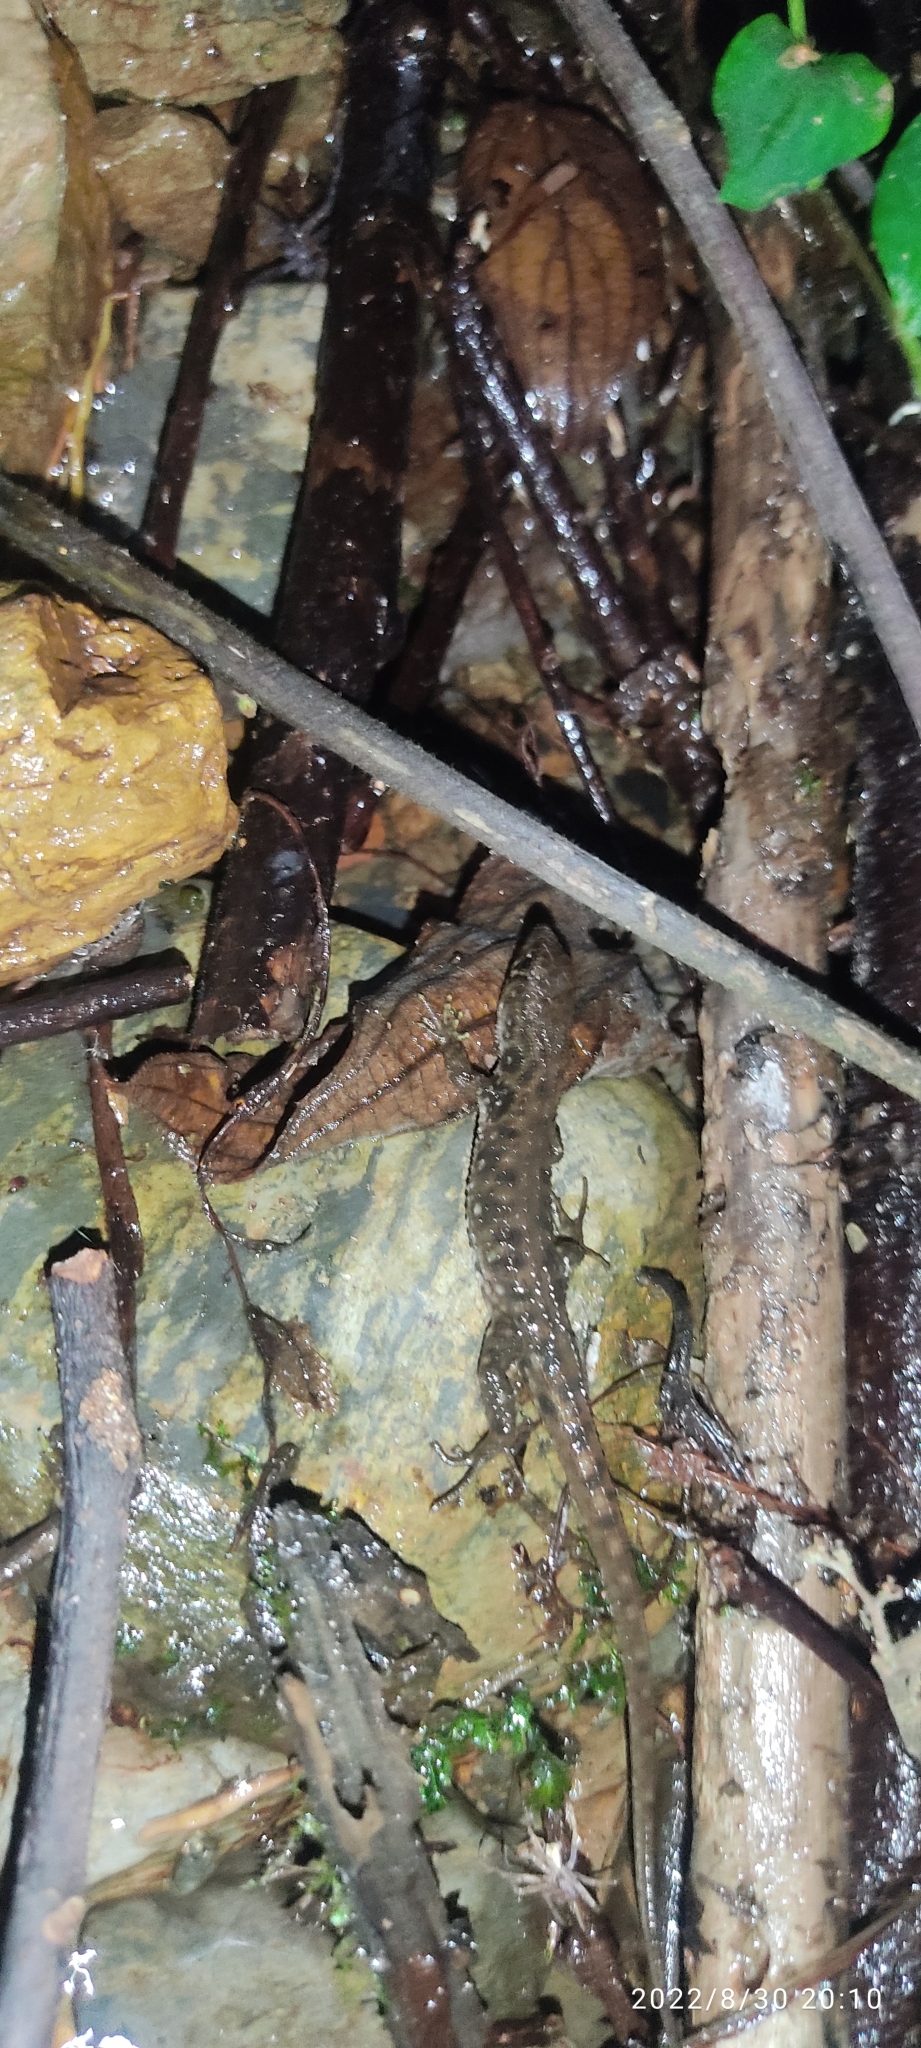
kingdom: Animalia
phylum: Chordata
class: Squamata
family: Gymnophthalmidae
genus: Potamites
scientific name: Potamites montanicola
